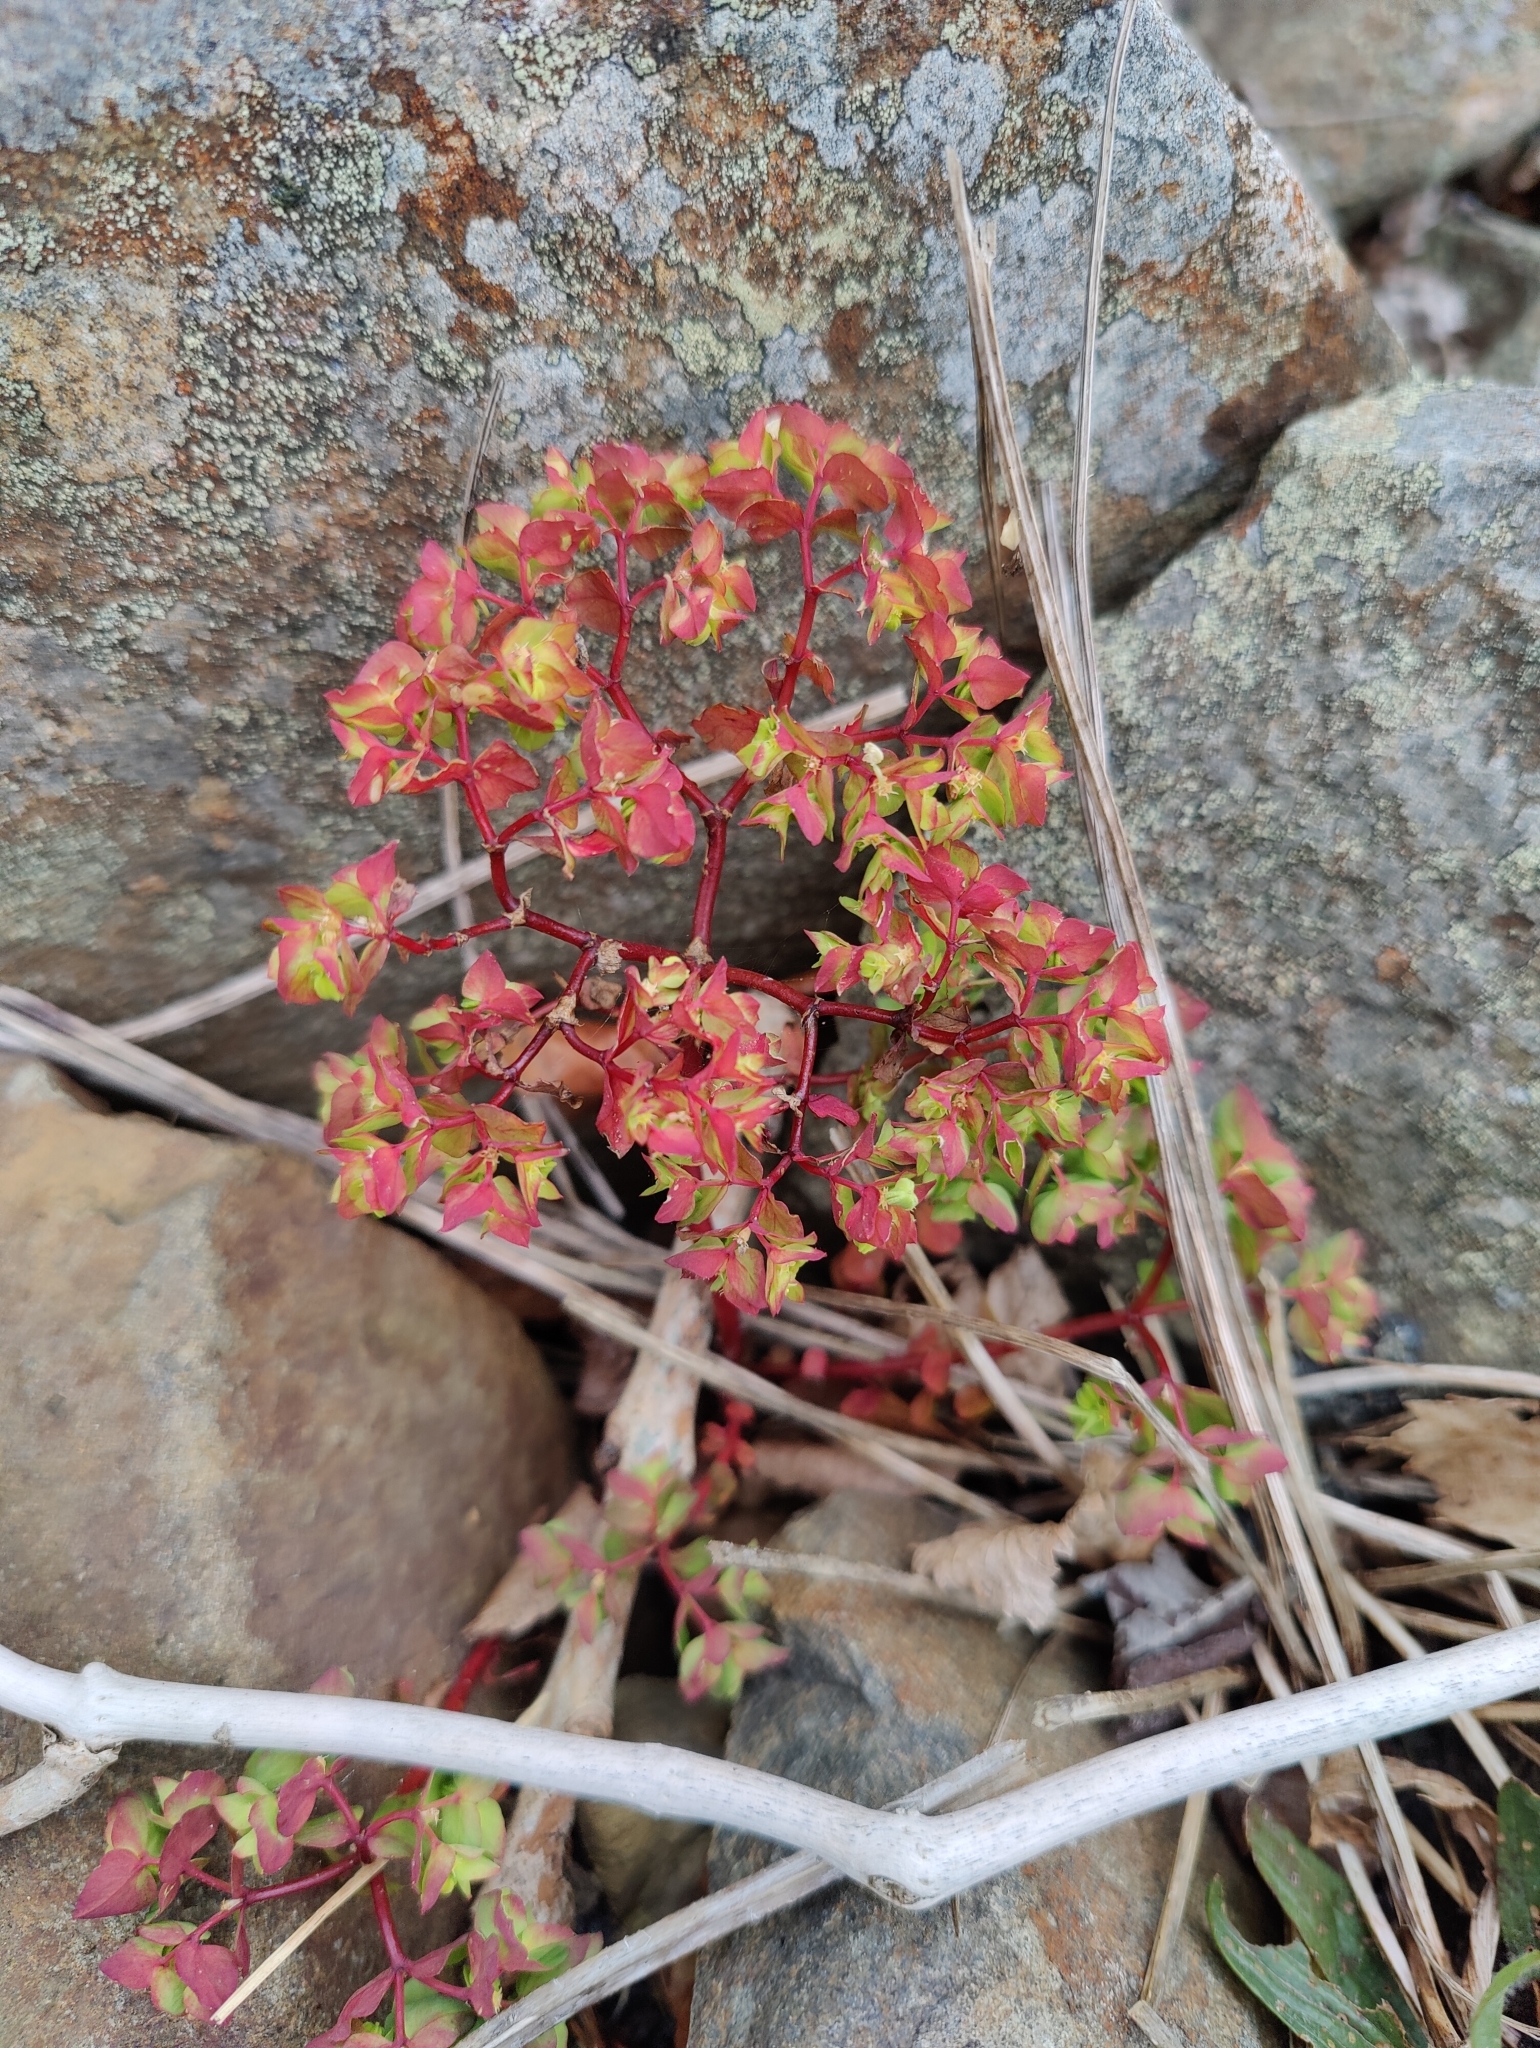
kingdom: Plantae
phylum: Tracheophyta
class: Magnoliopsida
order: Malpighiales
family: Euphorbiaceae
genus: Euphorbia
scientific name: Euphorbia peplus
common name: Petty spurge
